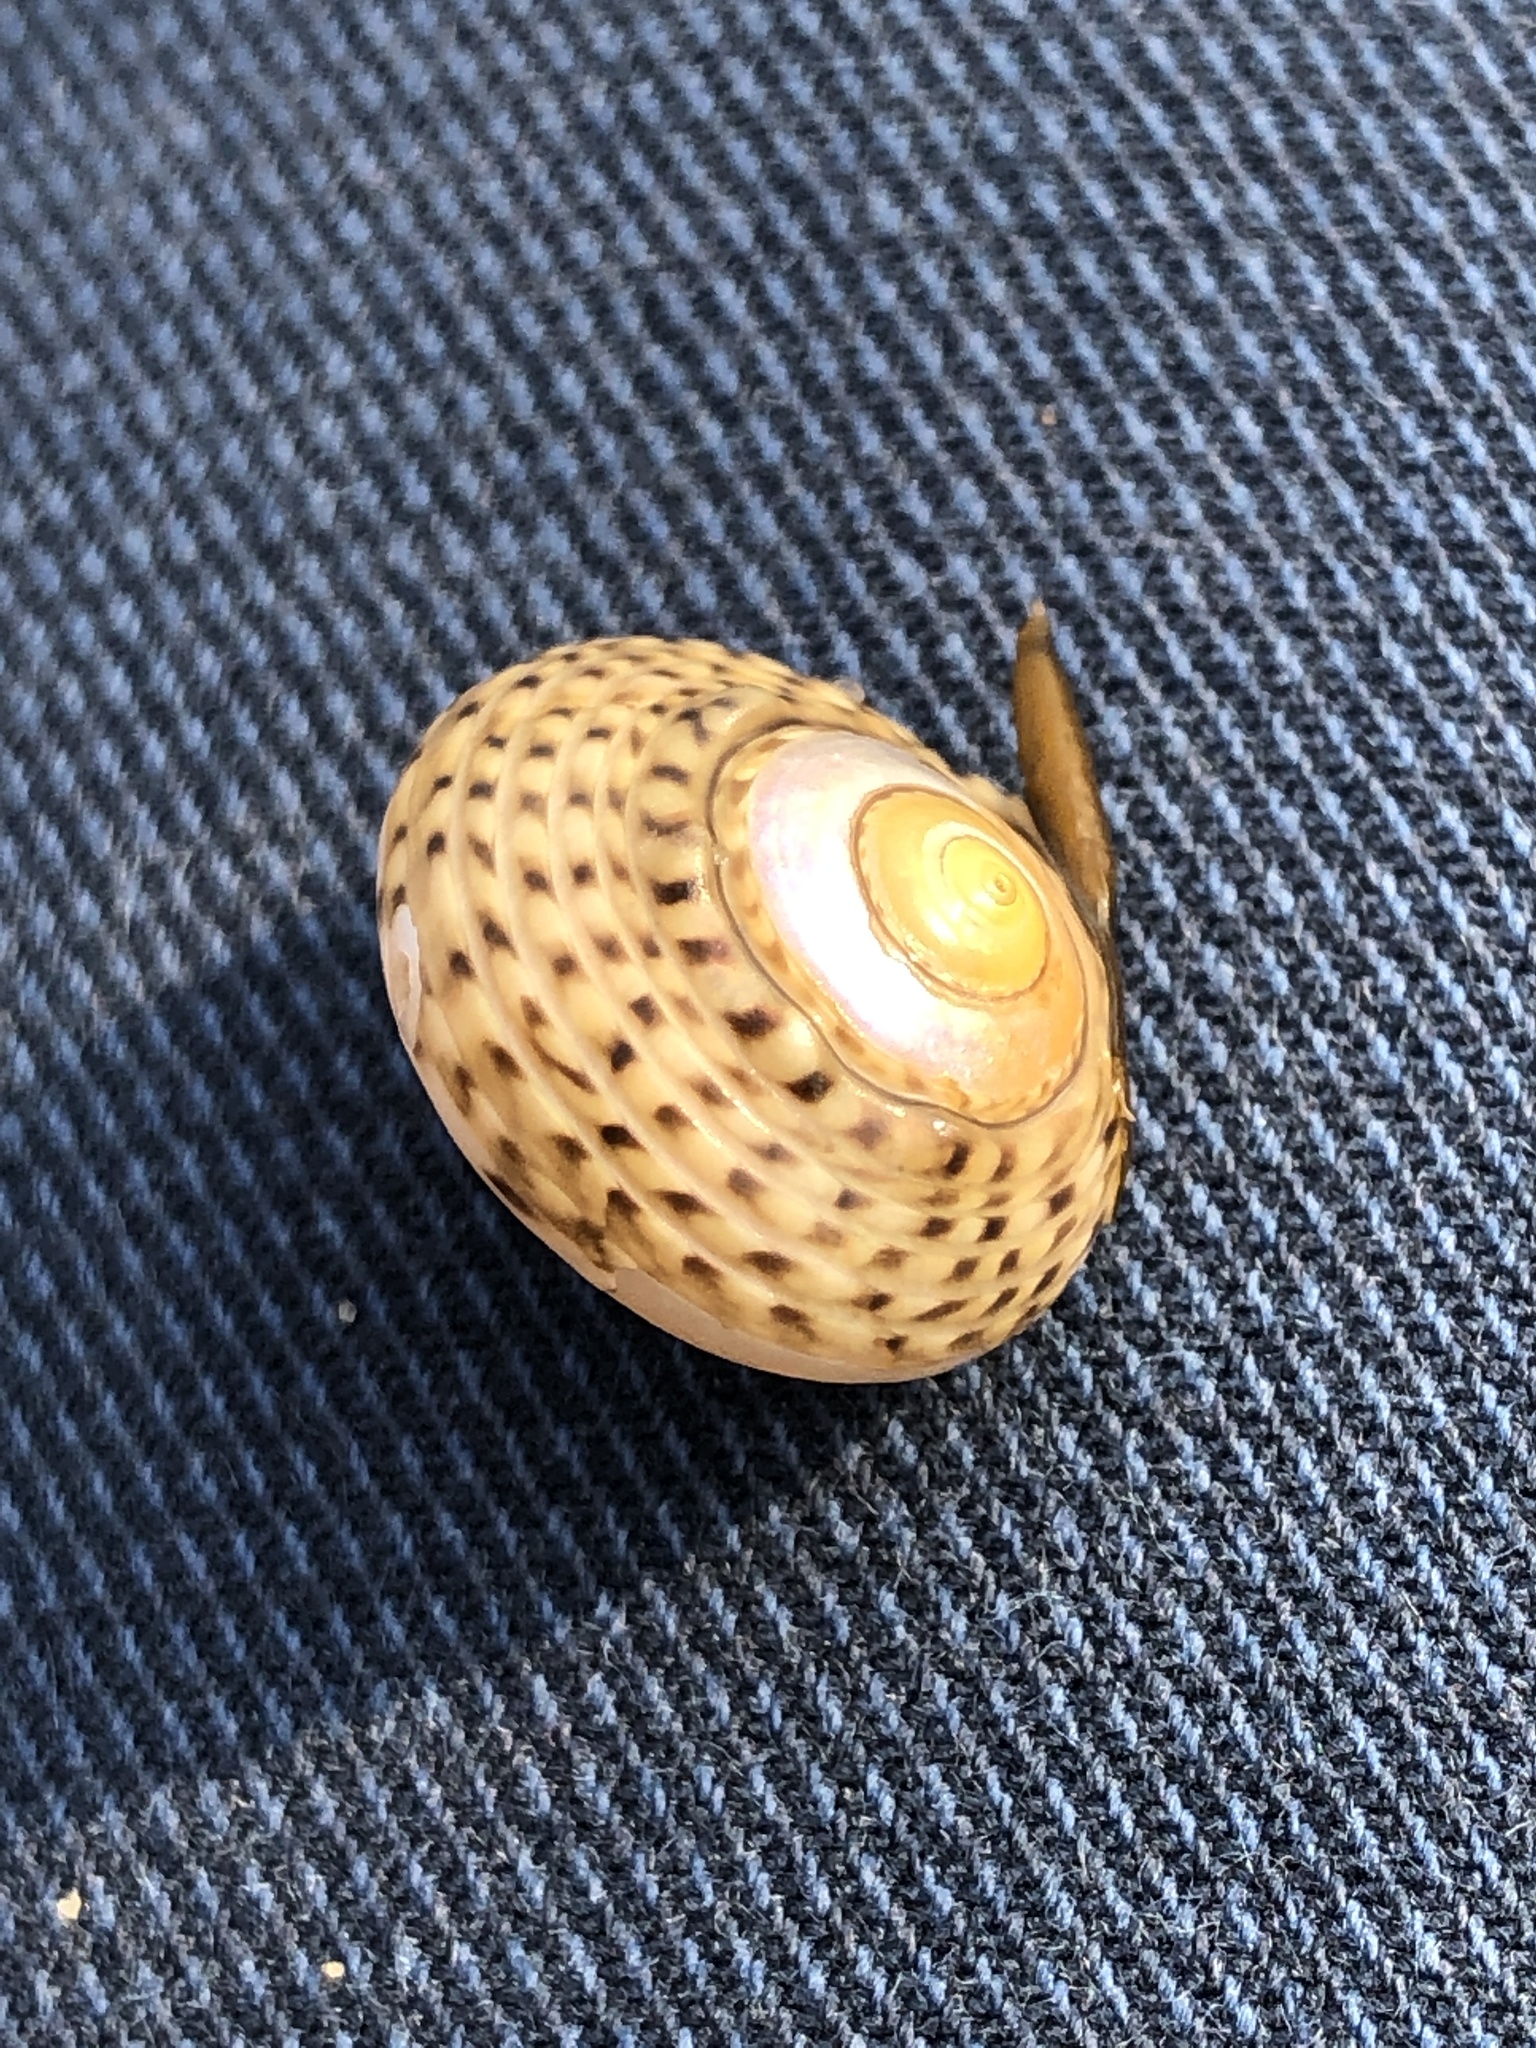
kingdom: Animalia
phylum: Mollusca
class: Gastropoda
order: Trochida
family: Trochidae
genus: Umbonium
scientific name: Umbonium costatum
